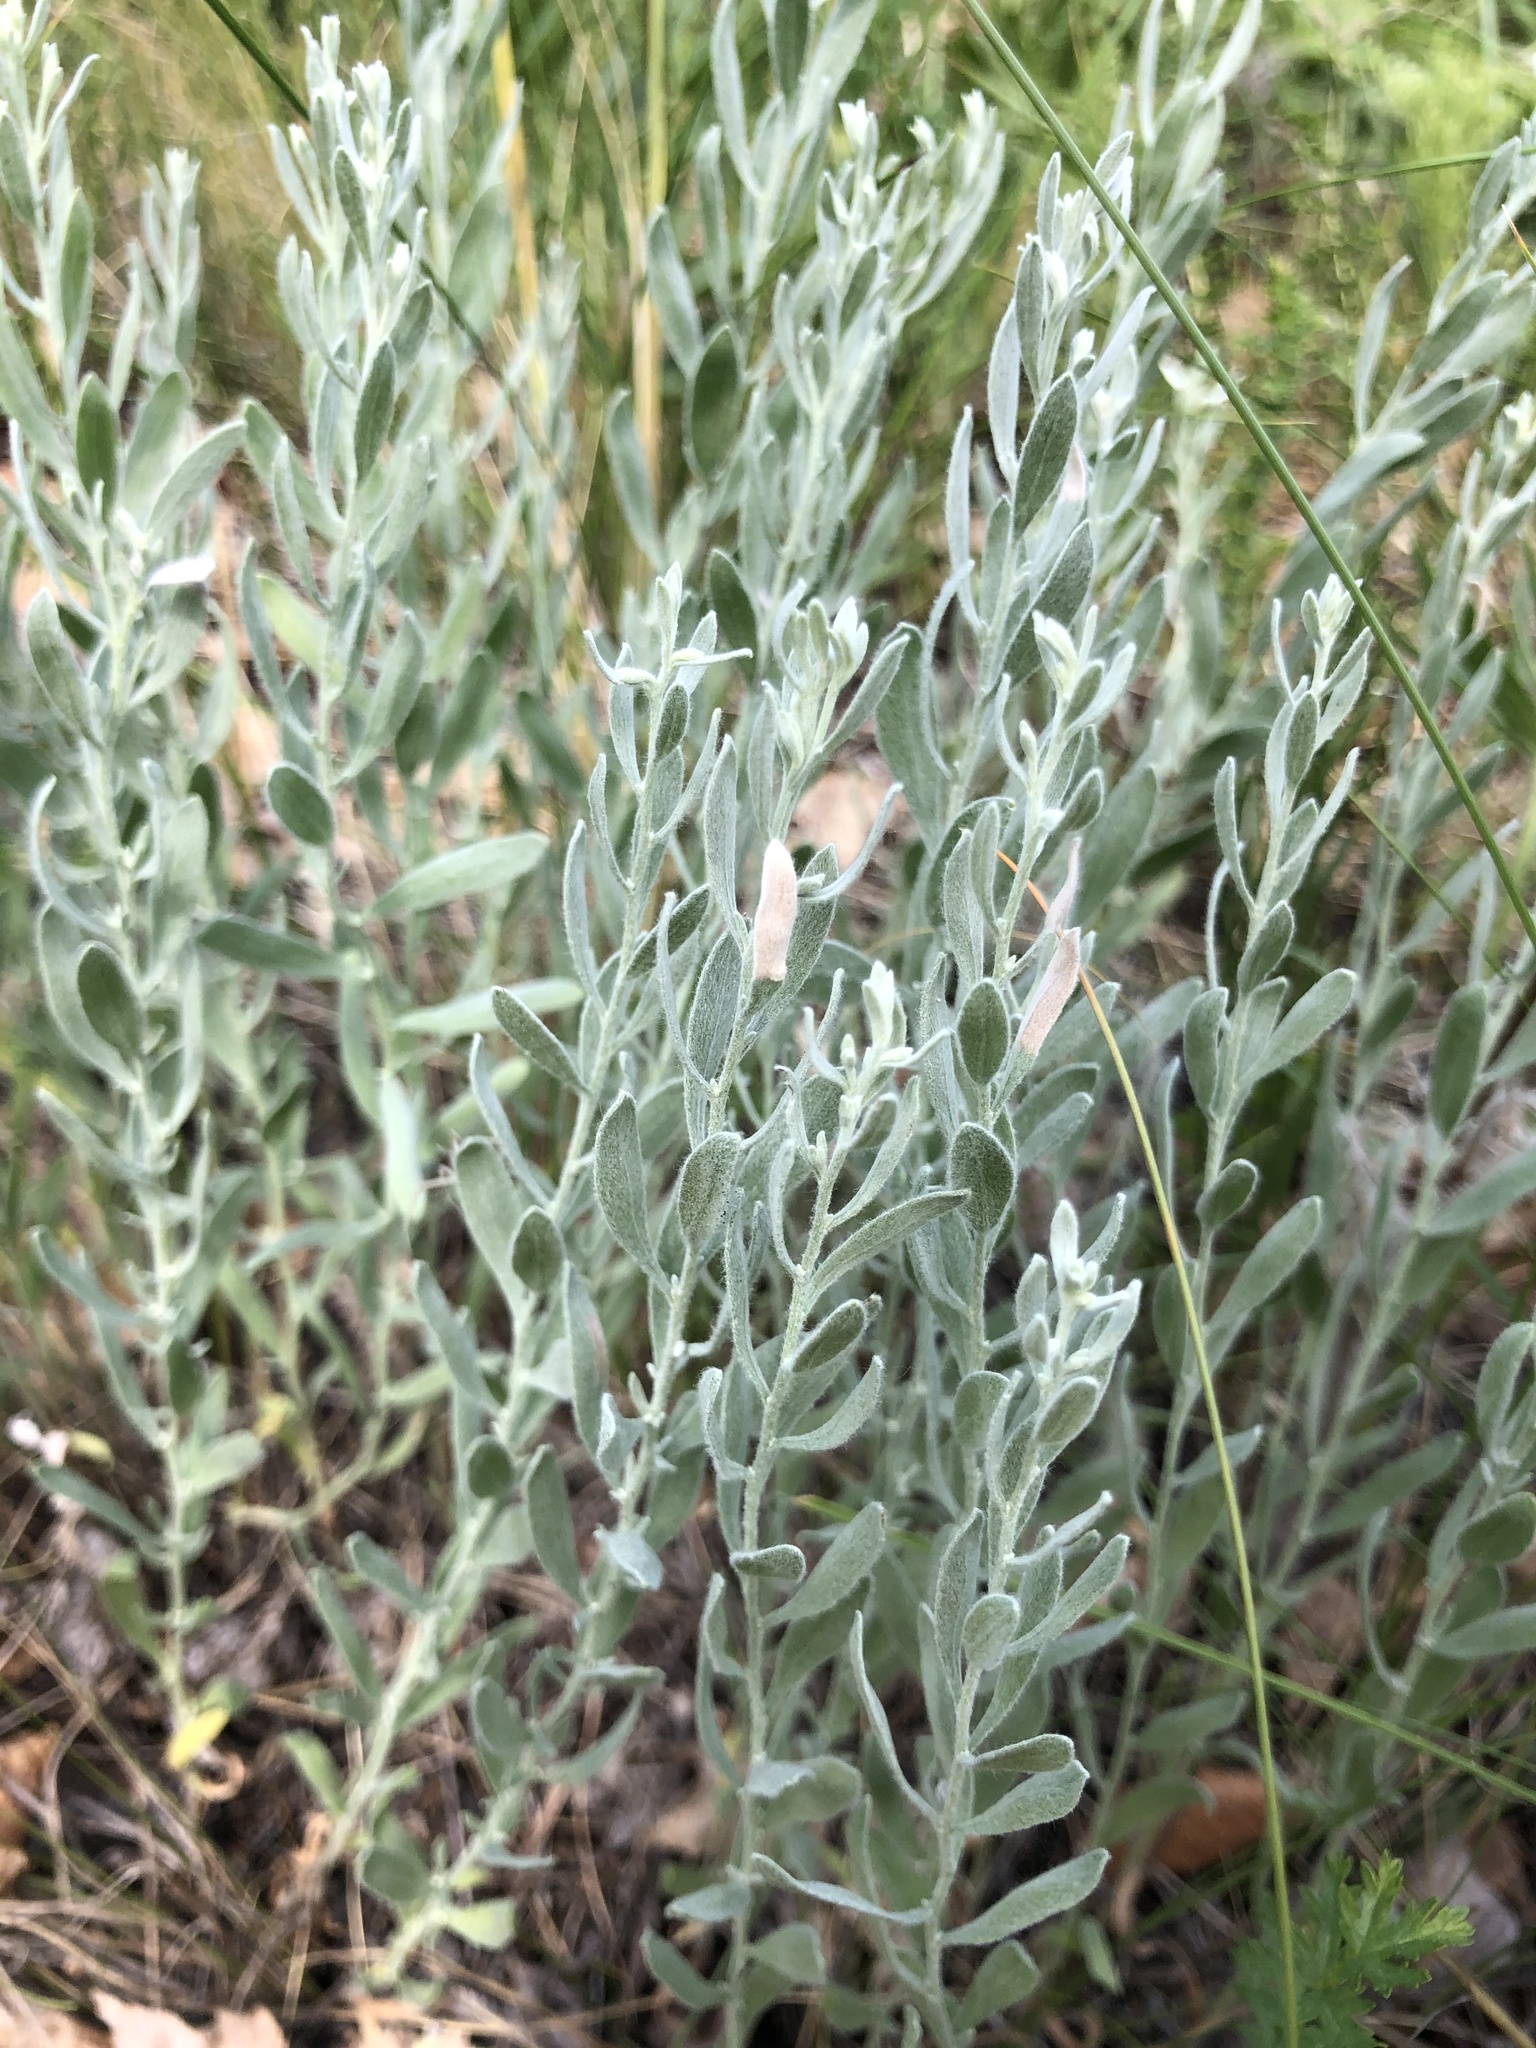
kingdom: Plantae
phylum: Tracheophyta
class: Magnoliopsida
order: Asterales
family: Asteraceae
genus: Galatella
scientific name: Galatella villosa
